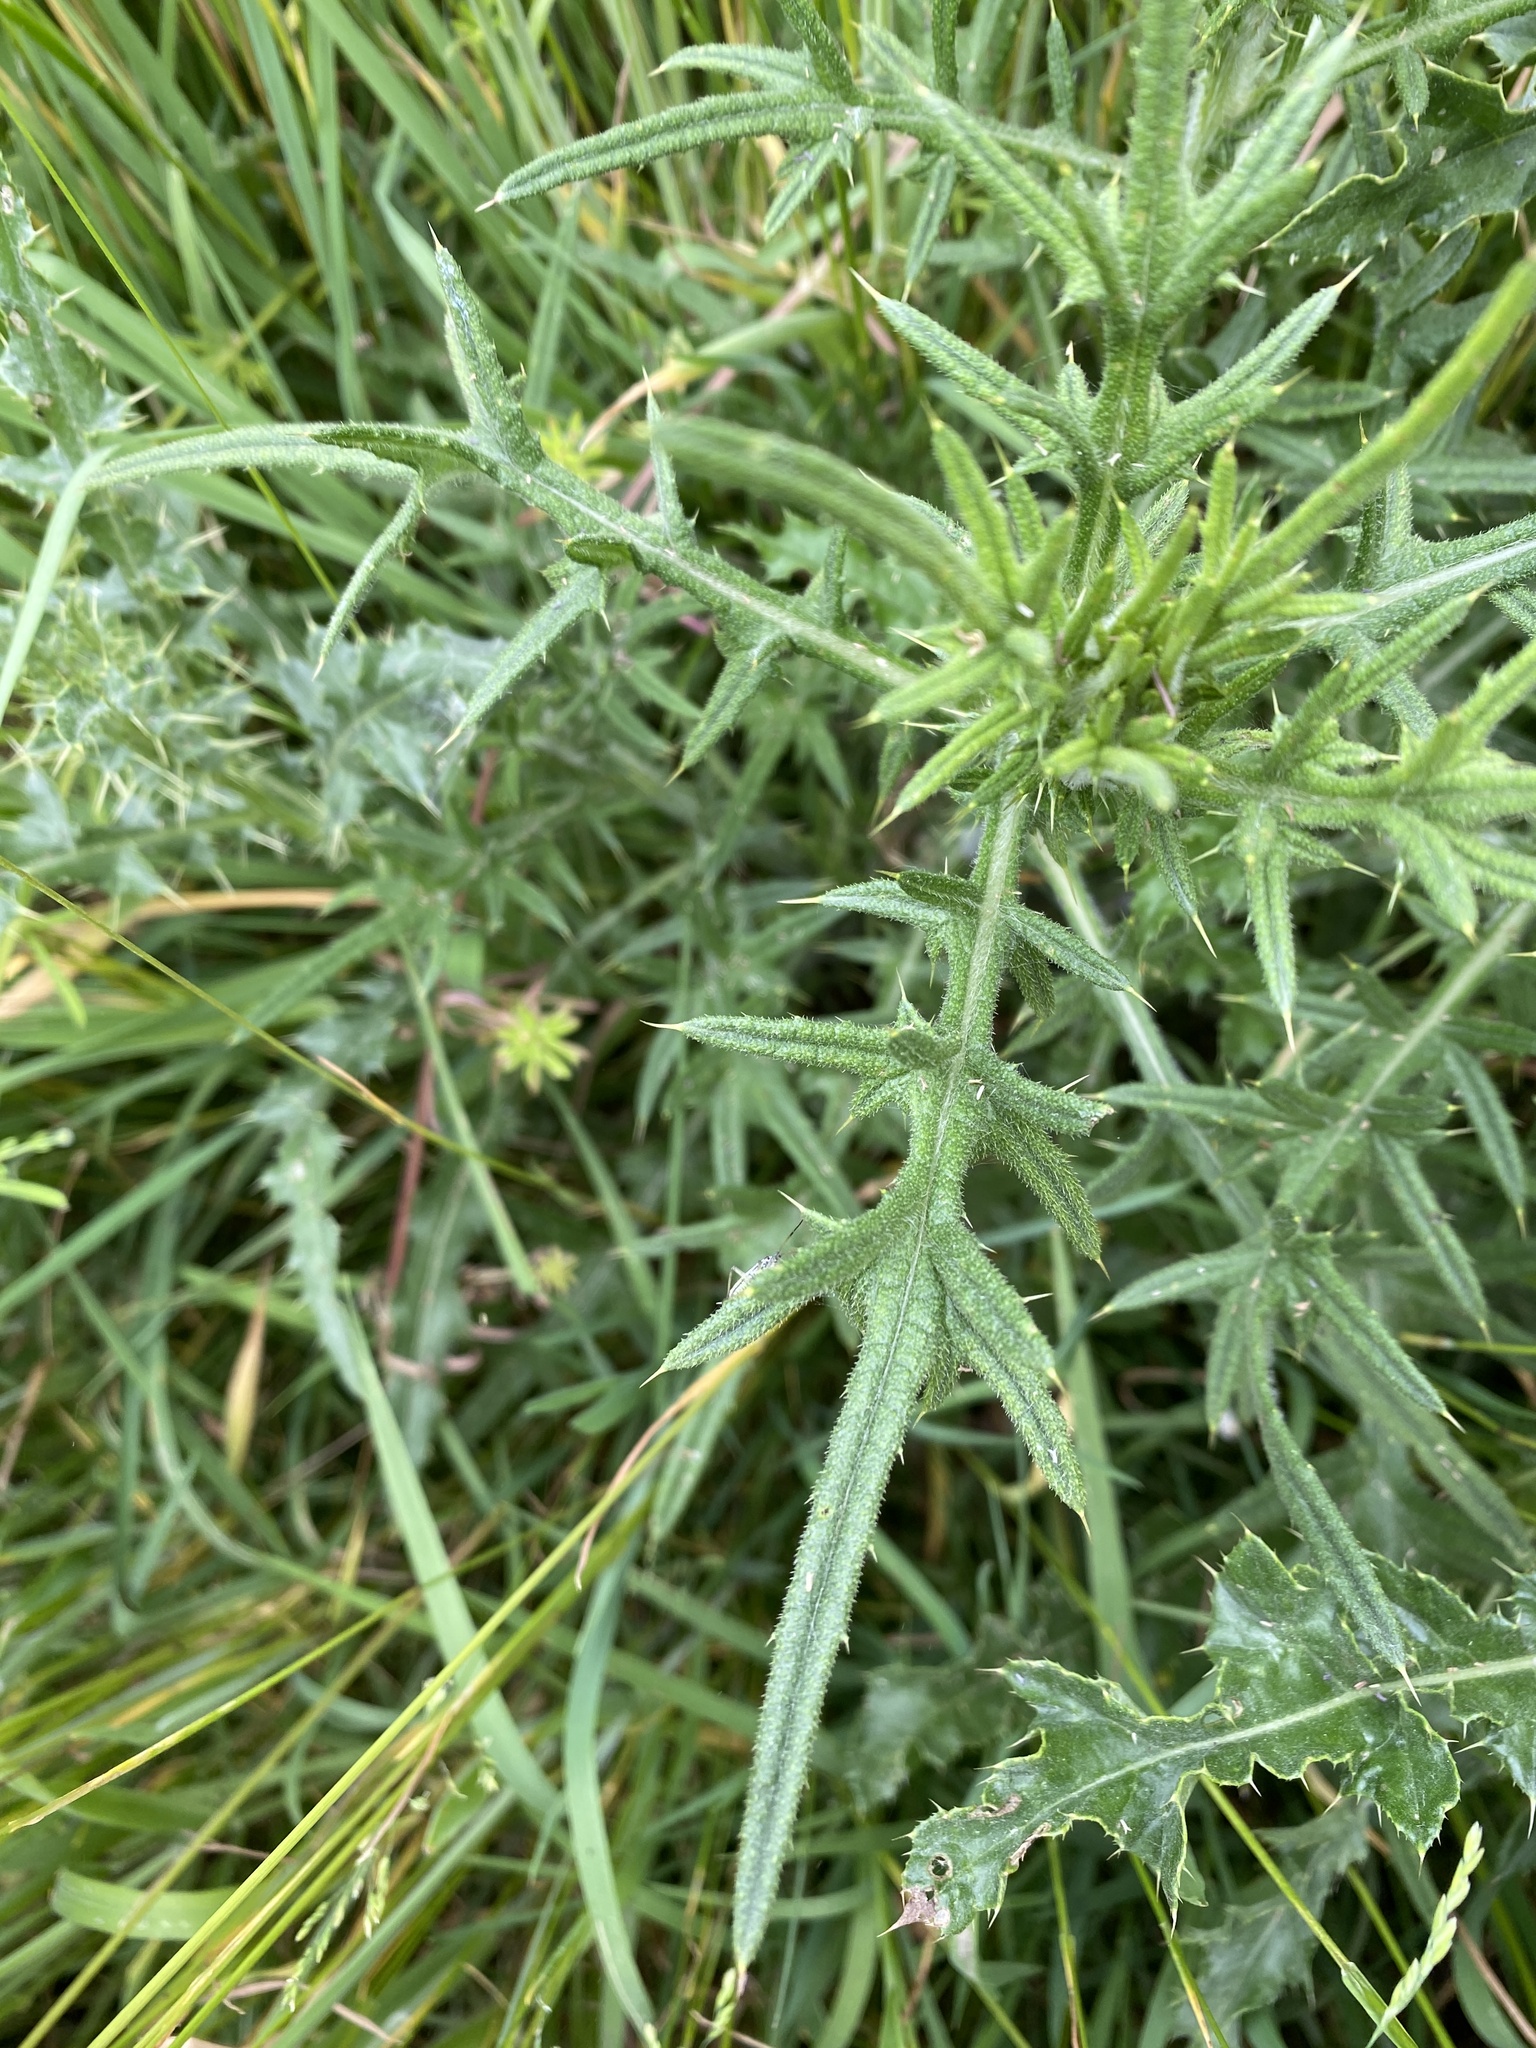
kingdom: Plantae
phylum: Tracheophyta
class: Magnoliopsida
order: Asterales
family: Asteraceae
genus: Cirsium
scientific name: Cirsium vulgare
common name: Bull thistle
